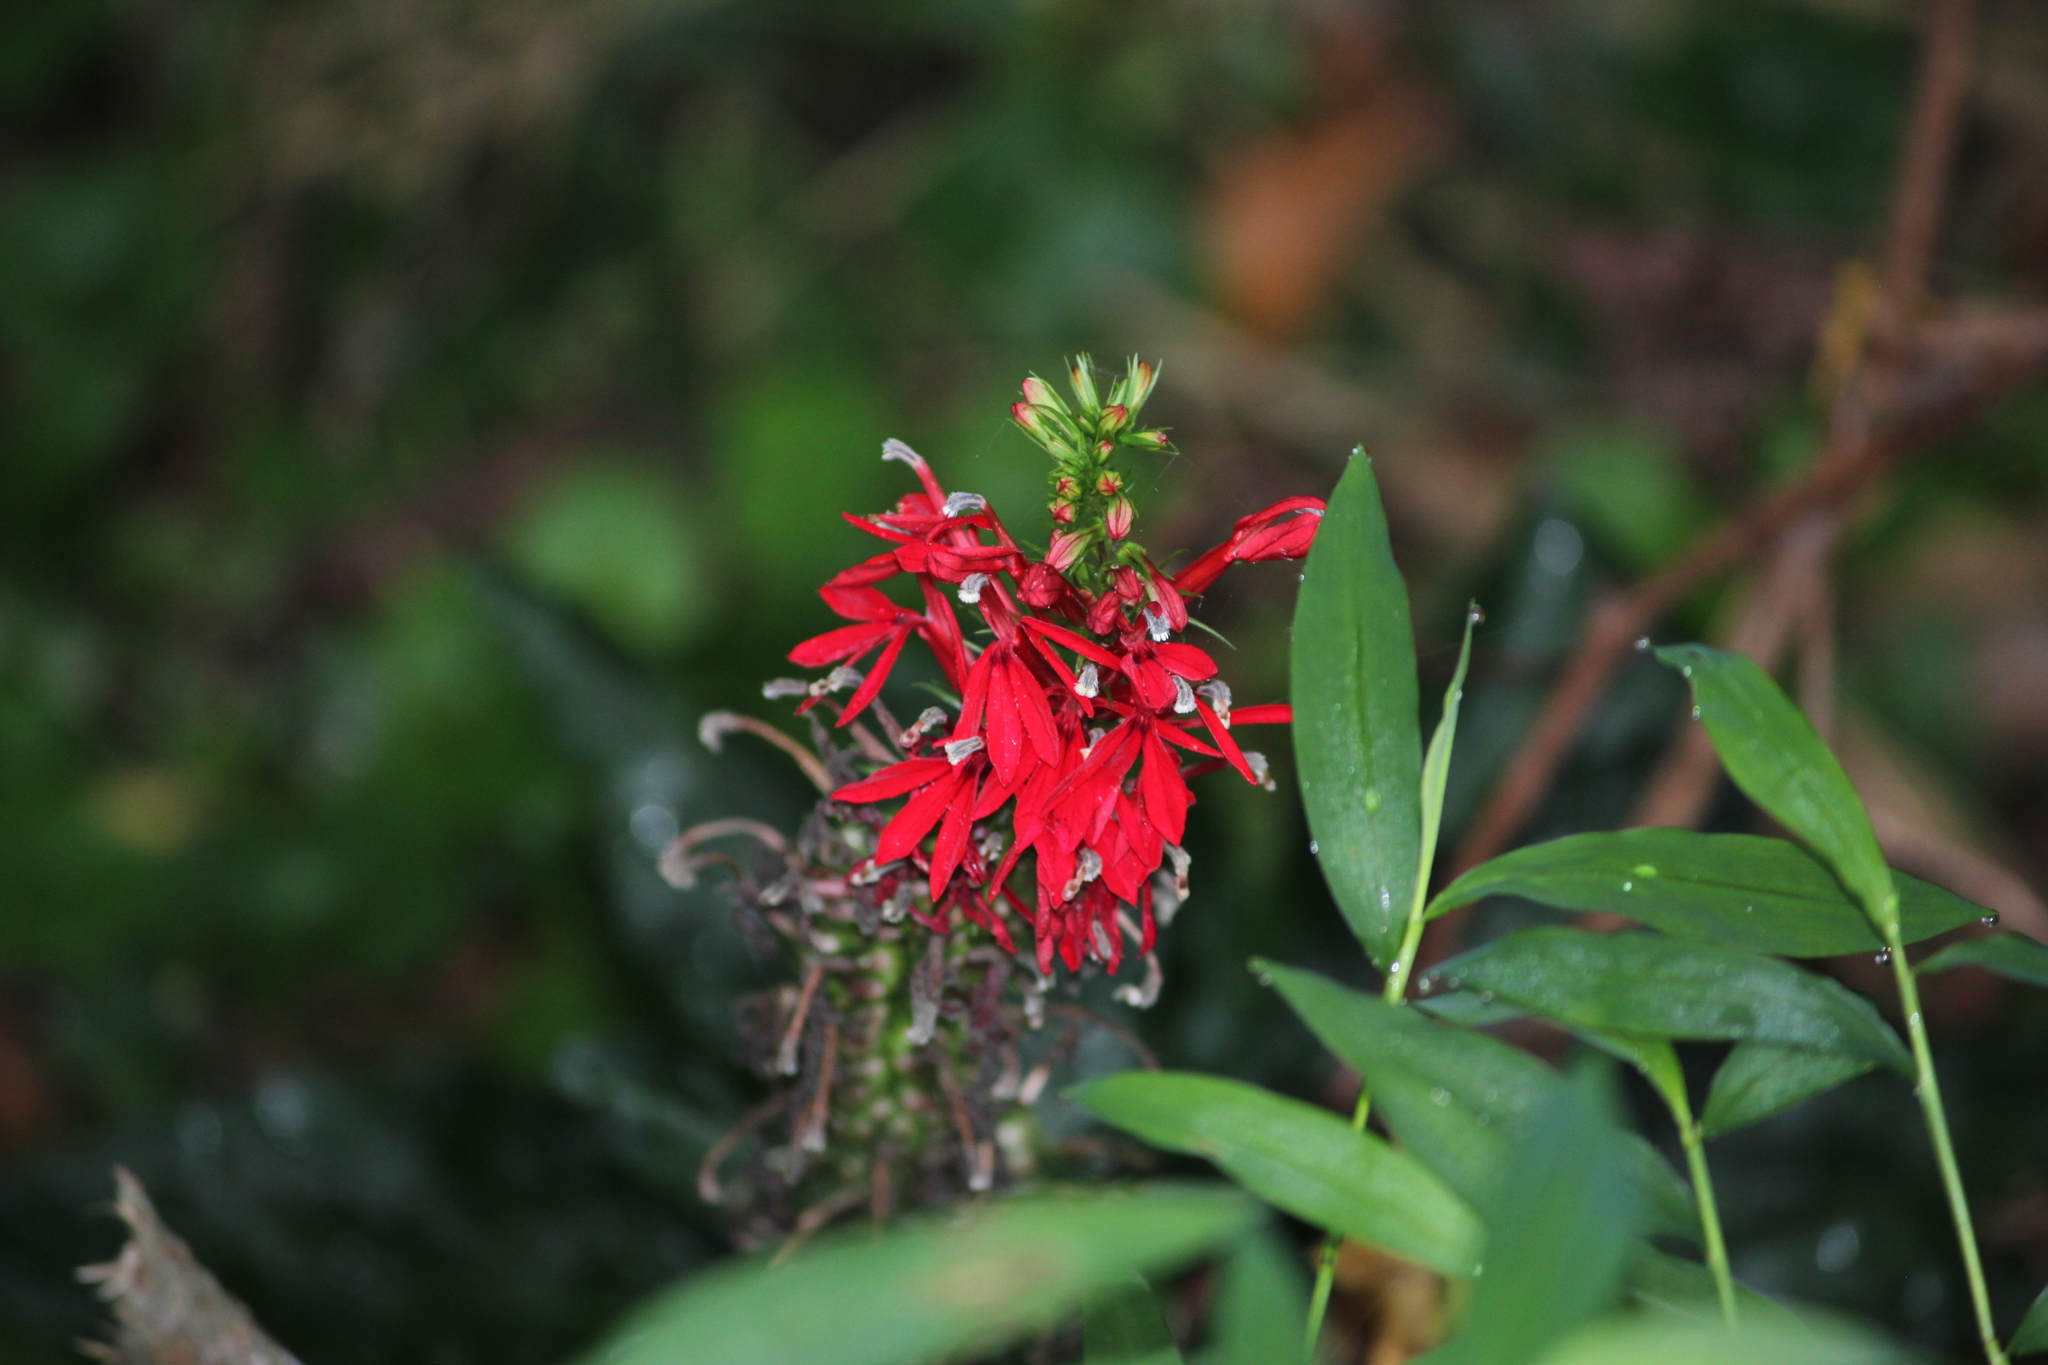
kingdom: Plantae
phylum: Tracheophyta
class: Magnoliopsida
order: Asterales
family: Campanulaceae
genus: Lobelia
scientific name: Lobelia cardinalis
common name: Cardinal flower
